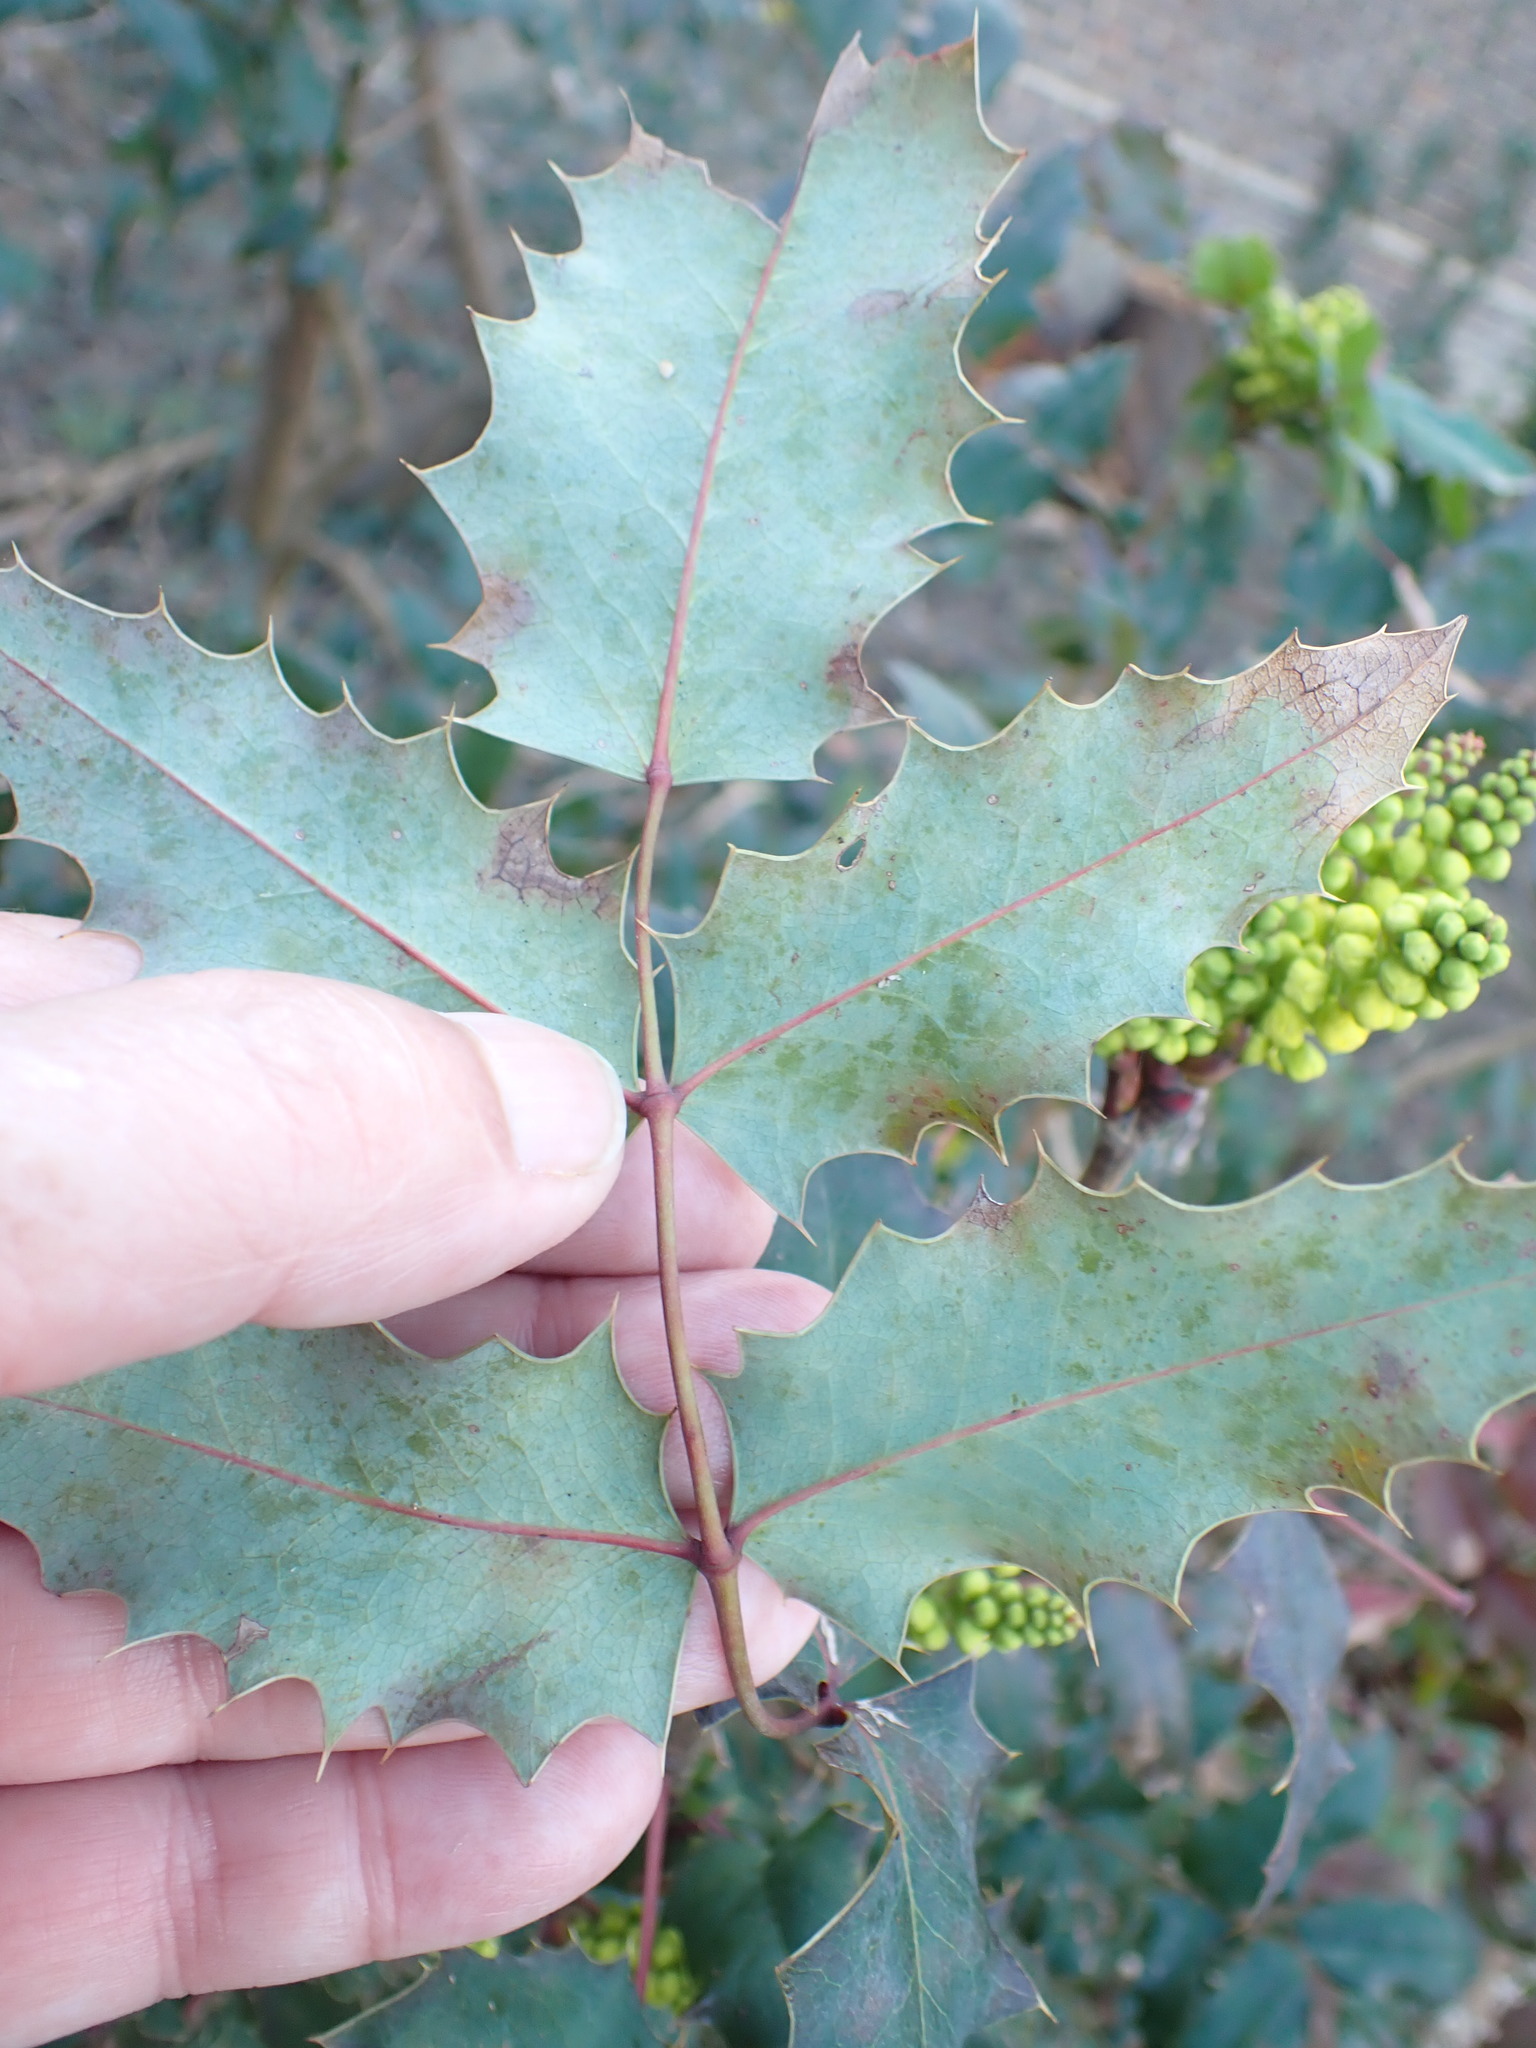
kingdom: Plantae
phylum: Tracheophyta
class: Magnoliopsida
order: Ranunculales
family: Berberidaceae
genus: Mahonia
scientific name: Mahonia aquifolium
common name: Oregon-grape
